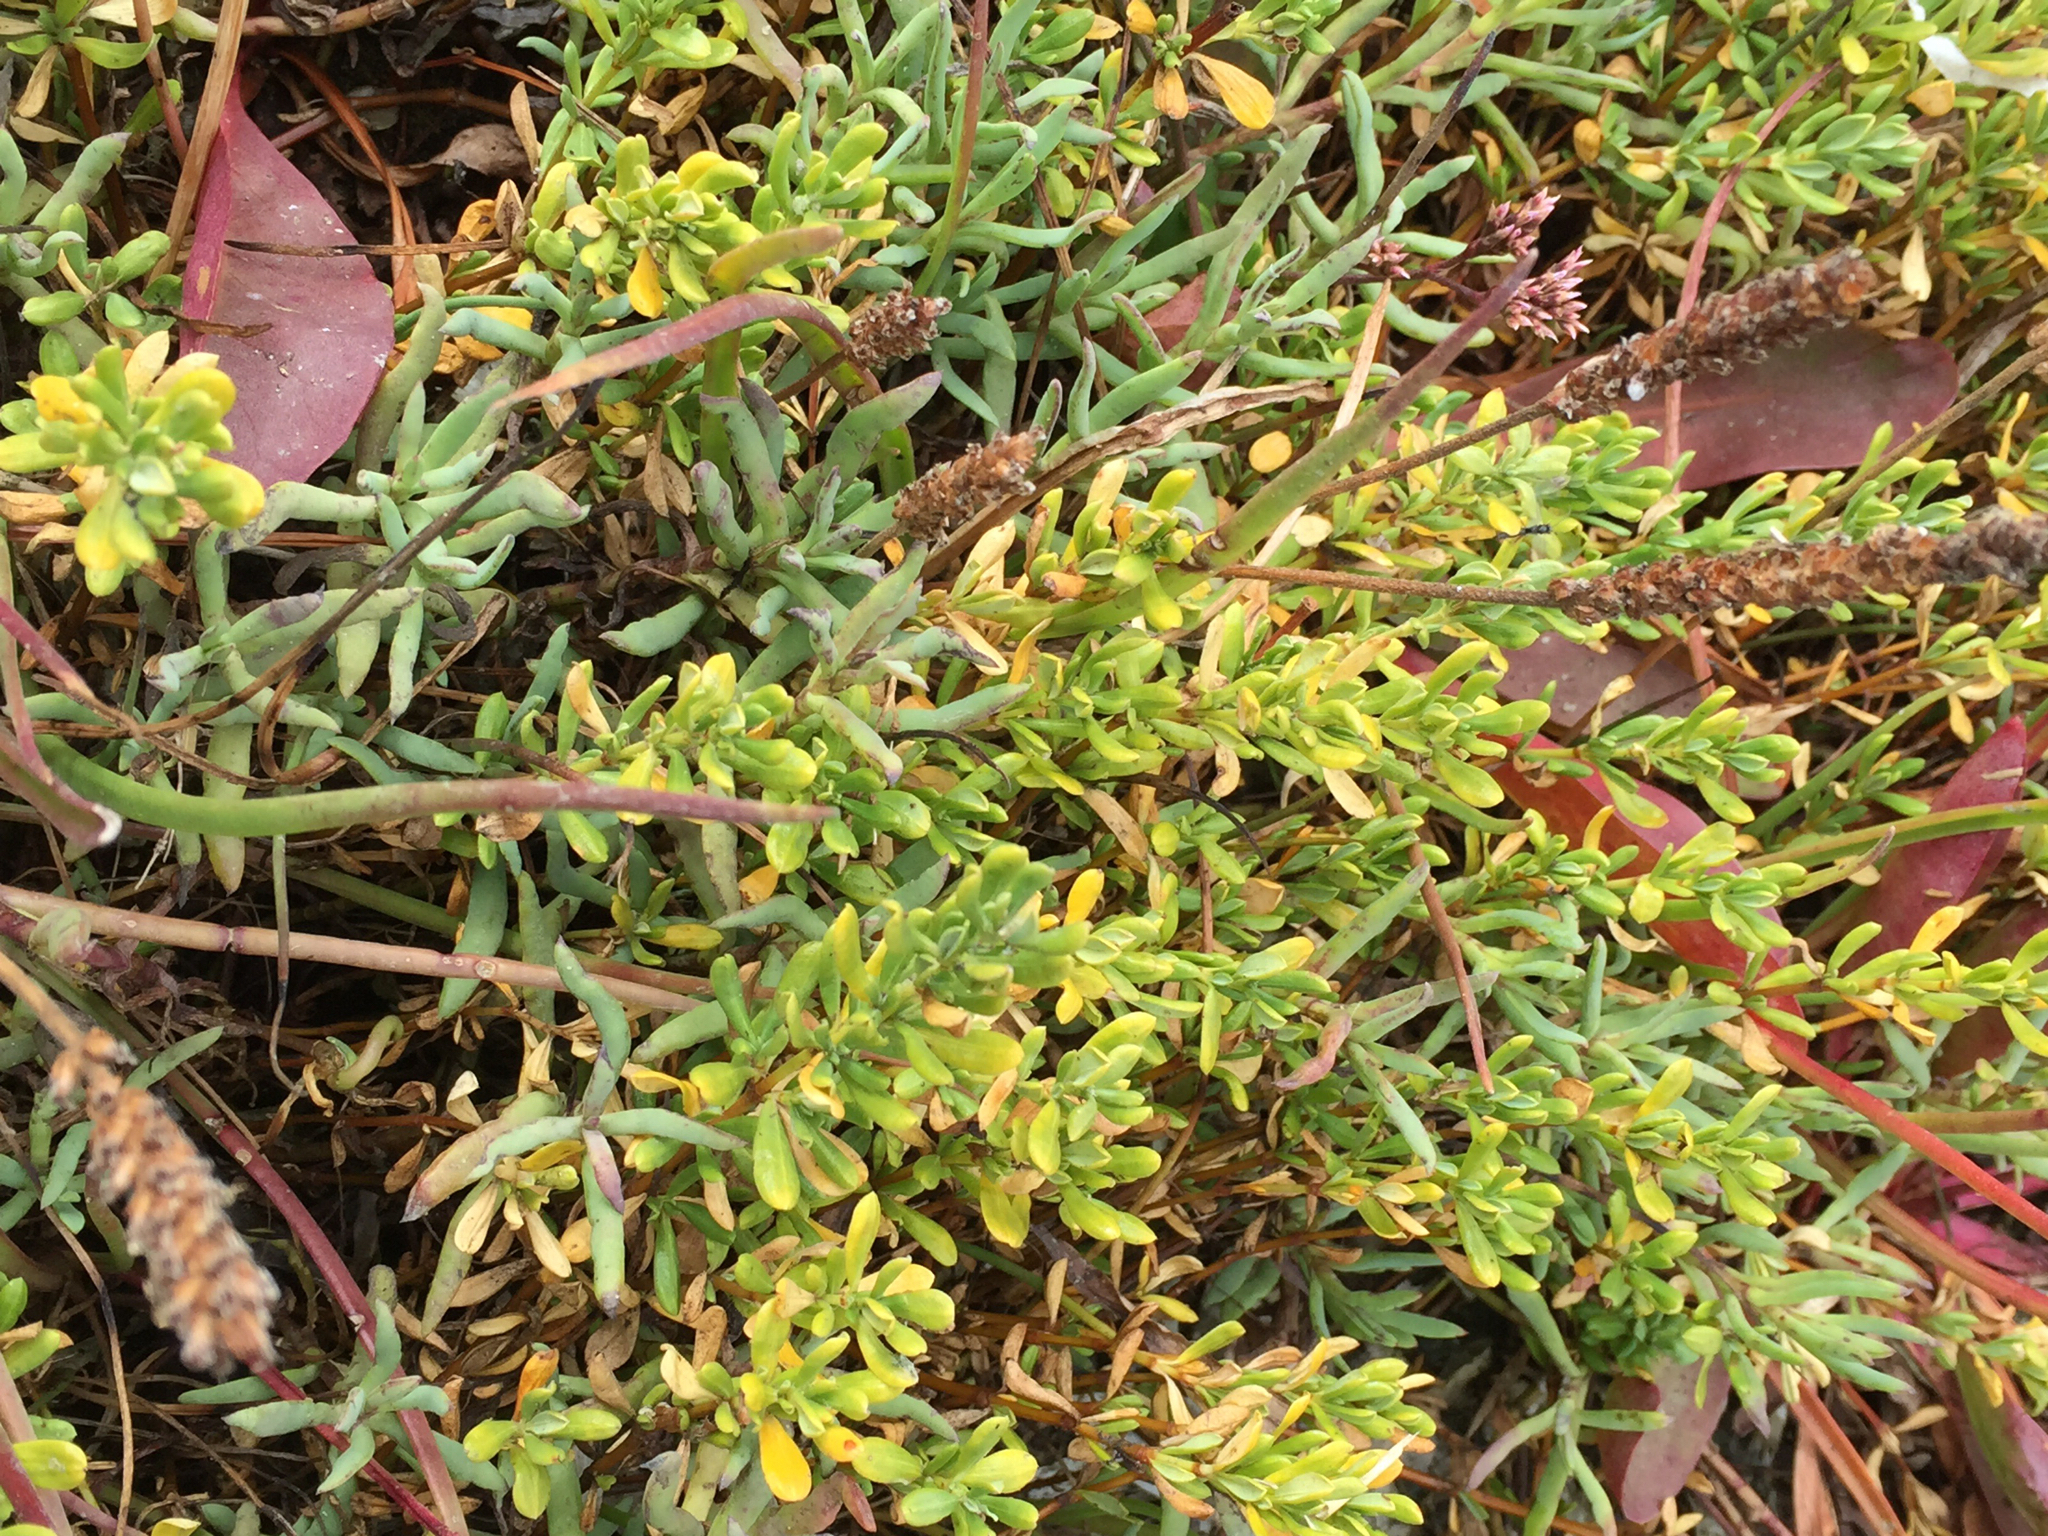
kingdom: Plantae
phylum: Tracheophyta
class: Magnoliopsida
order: Caryophyllales
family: Frankeniaceae
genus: Frankenia
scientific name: Frankenia salina
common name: Alkali seaheath
